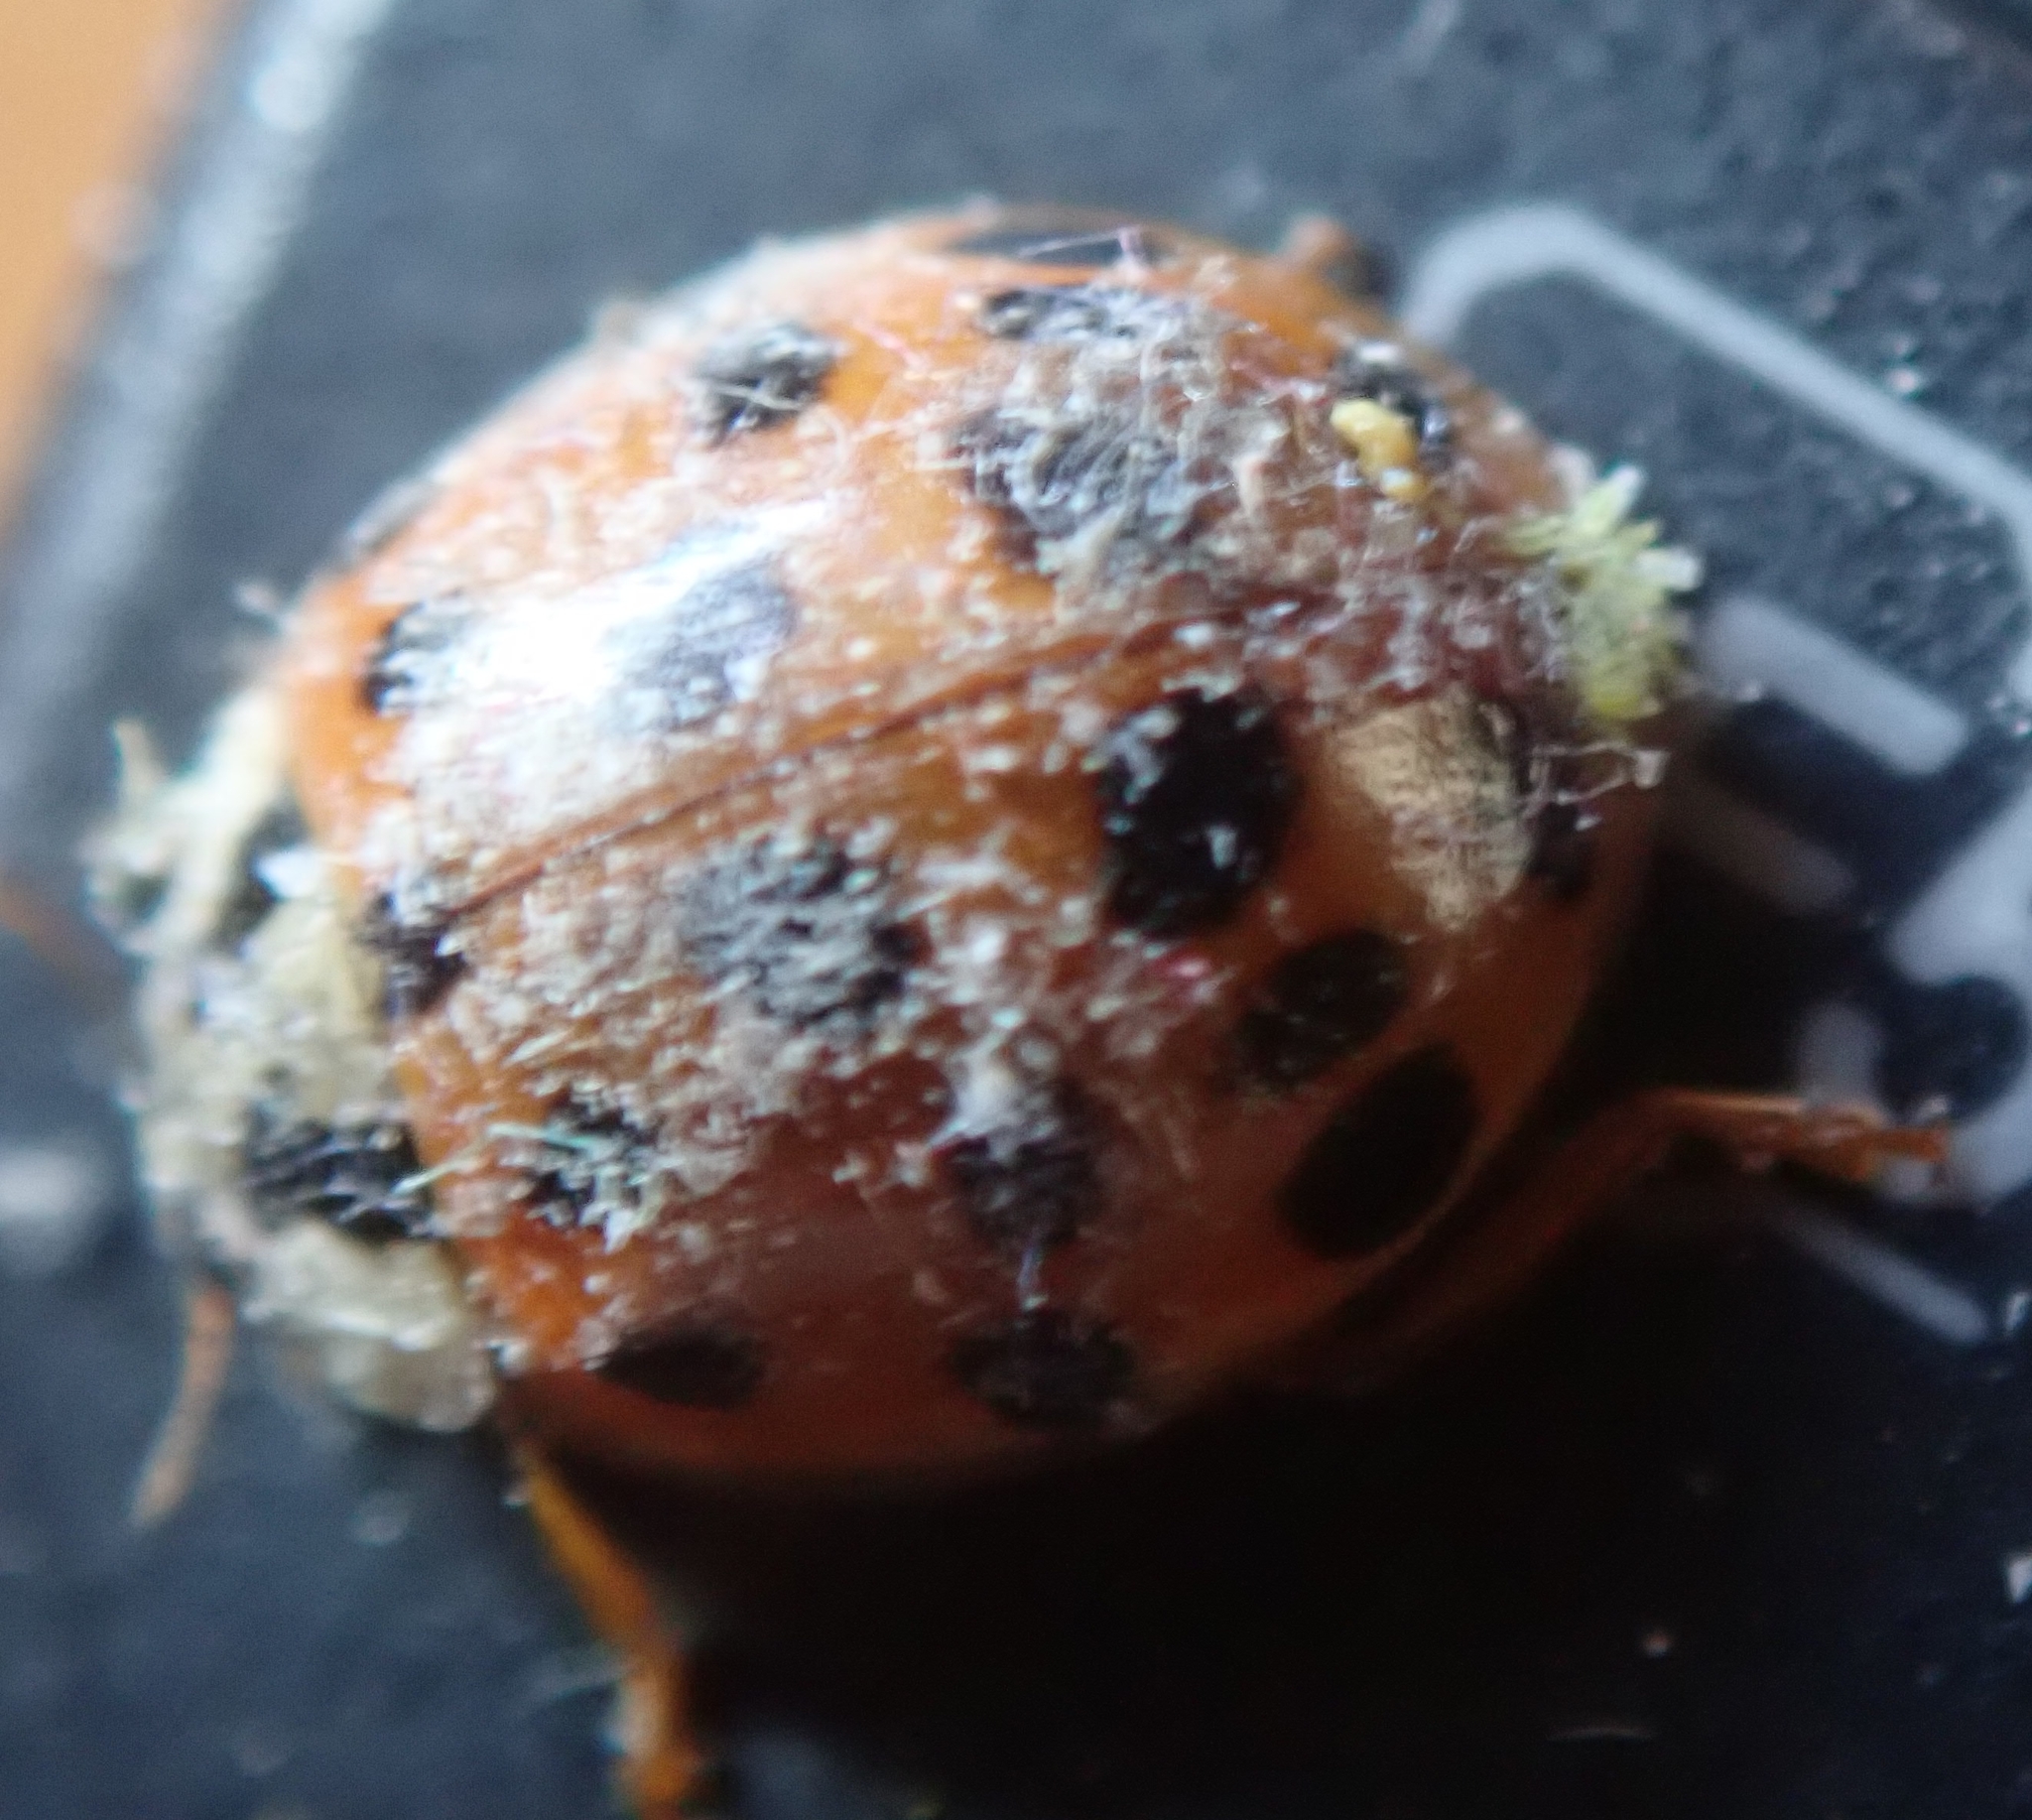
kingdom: Fungi
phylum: Ascomycota
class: Laboulbeniomycetes
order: Laboulbeniales
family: Laboulbeniaceae
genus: Hesperomyces
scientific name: Hesperomyces harmoniae
